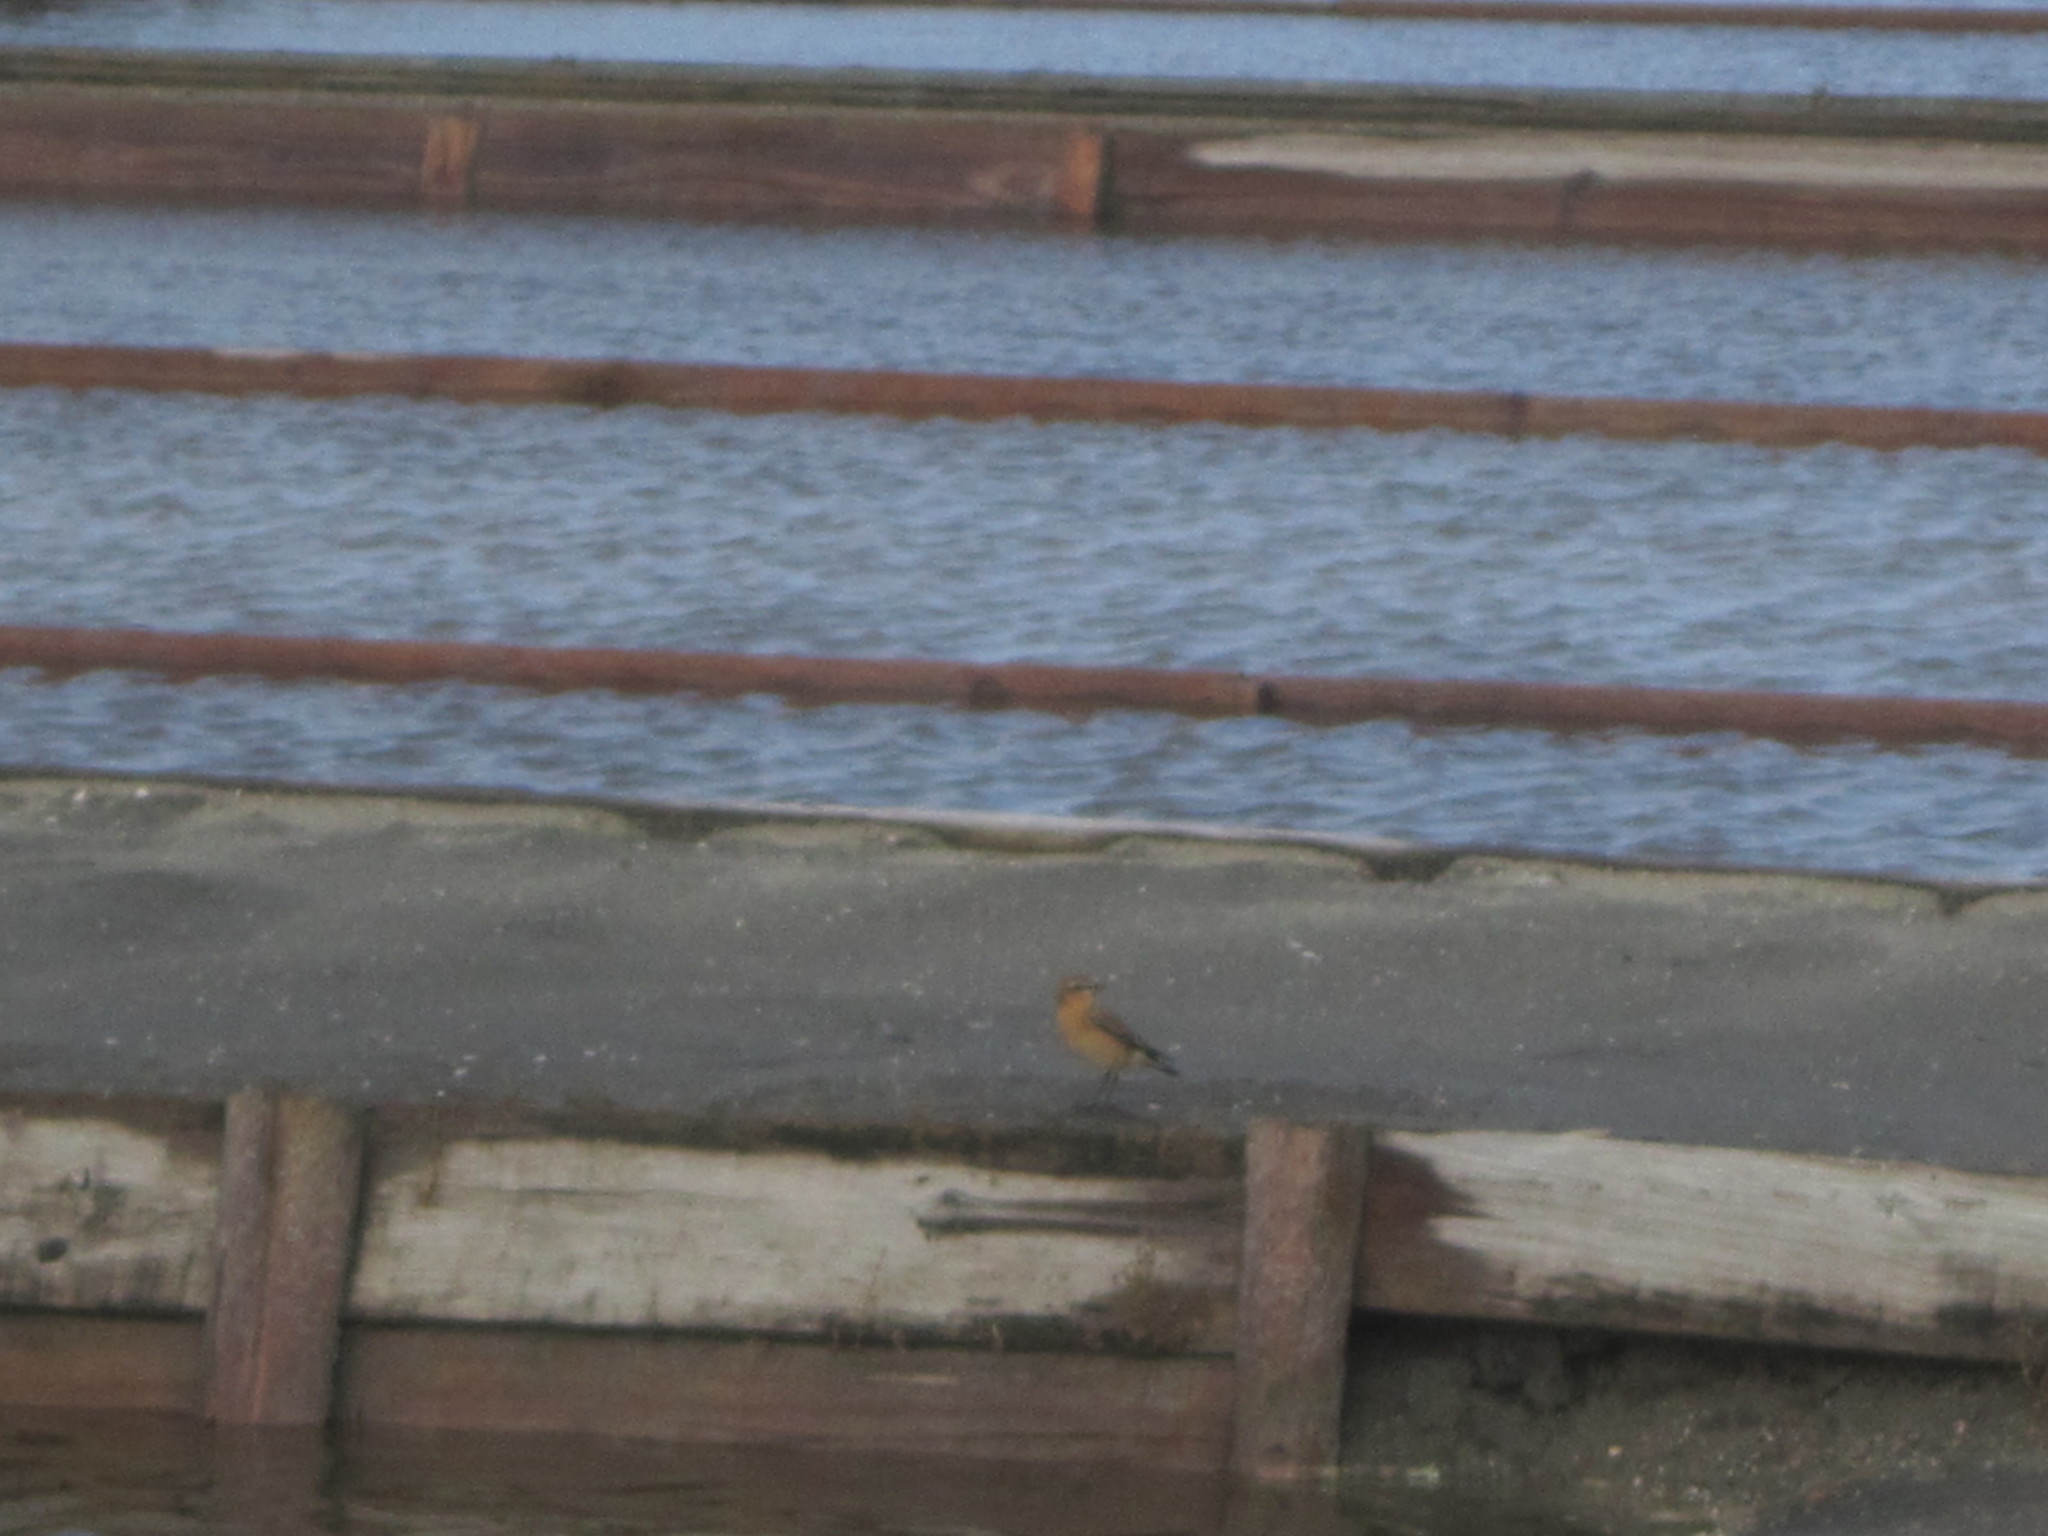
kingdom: Animalia
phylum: Chordata
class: Aves
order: Passeriformes
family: Muscicapidae
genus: Oenanthe
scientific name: Oenanthe oenanthe
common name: Northern wheatear
